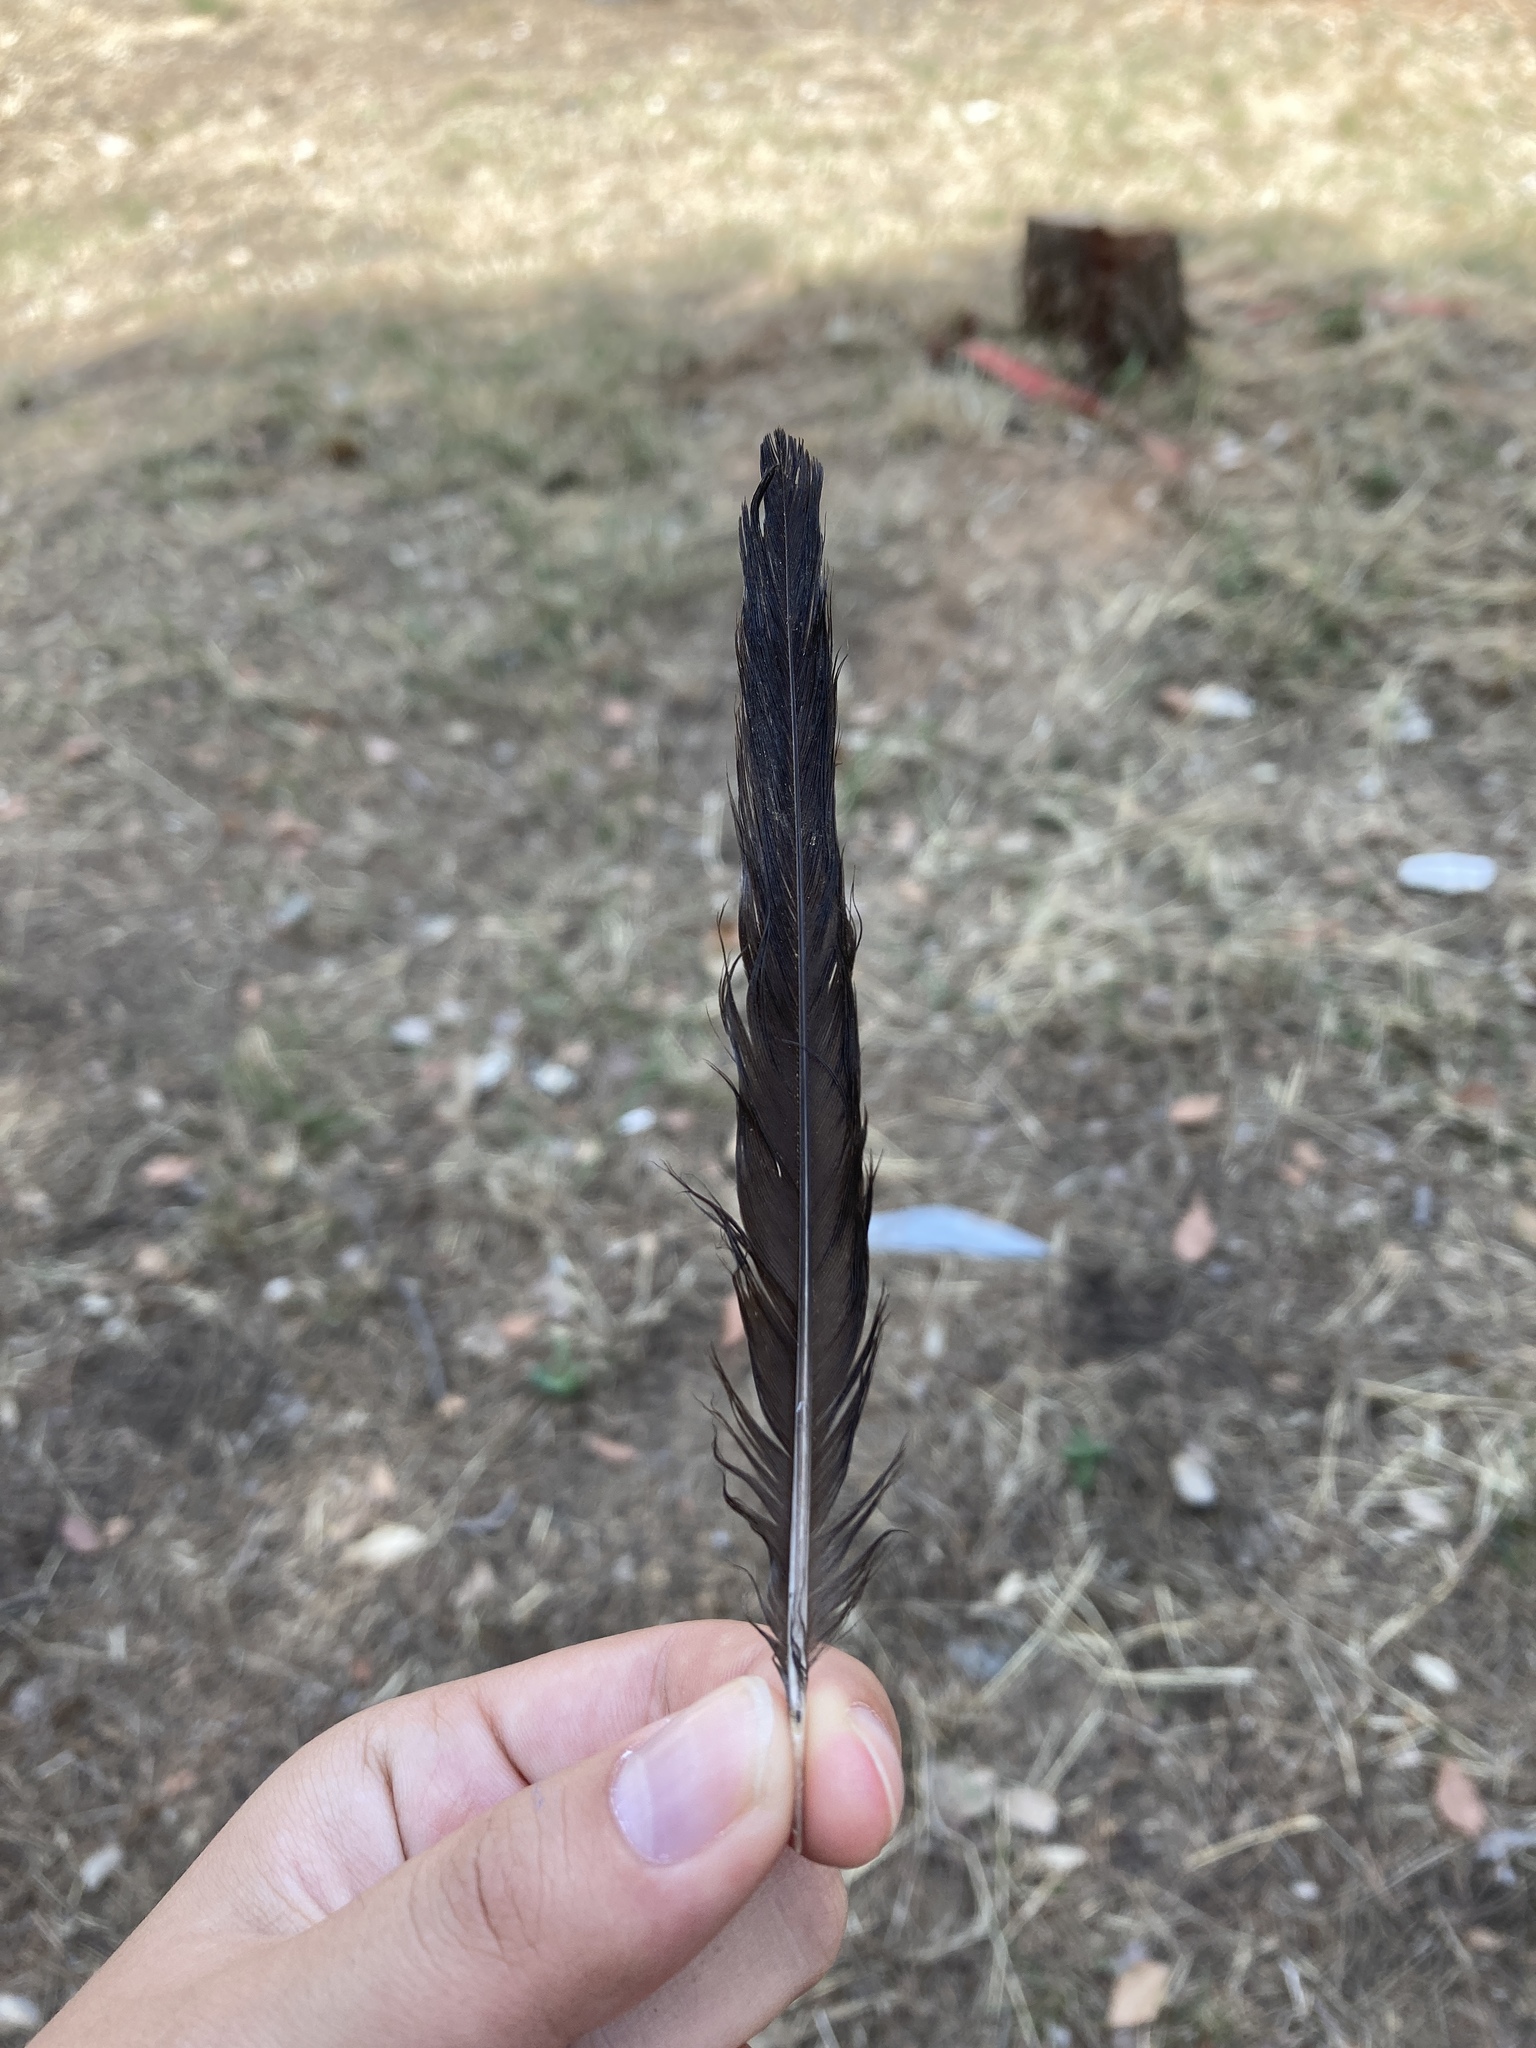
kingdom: Animalia
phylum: Chordata
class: Aves
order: Passeriformes
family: Turdidae
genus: Turdus
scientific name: Turdus merula
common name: Common blackbird
